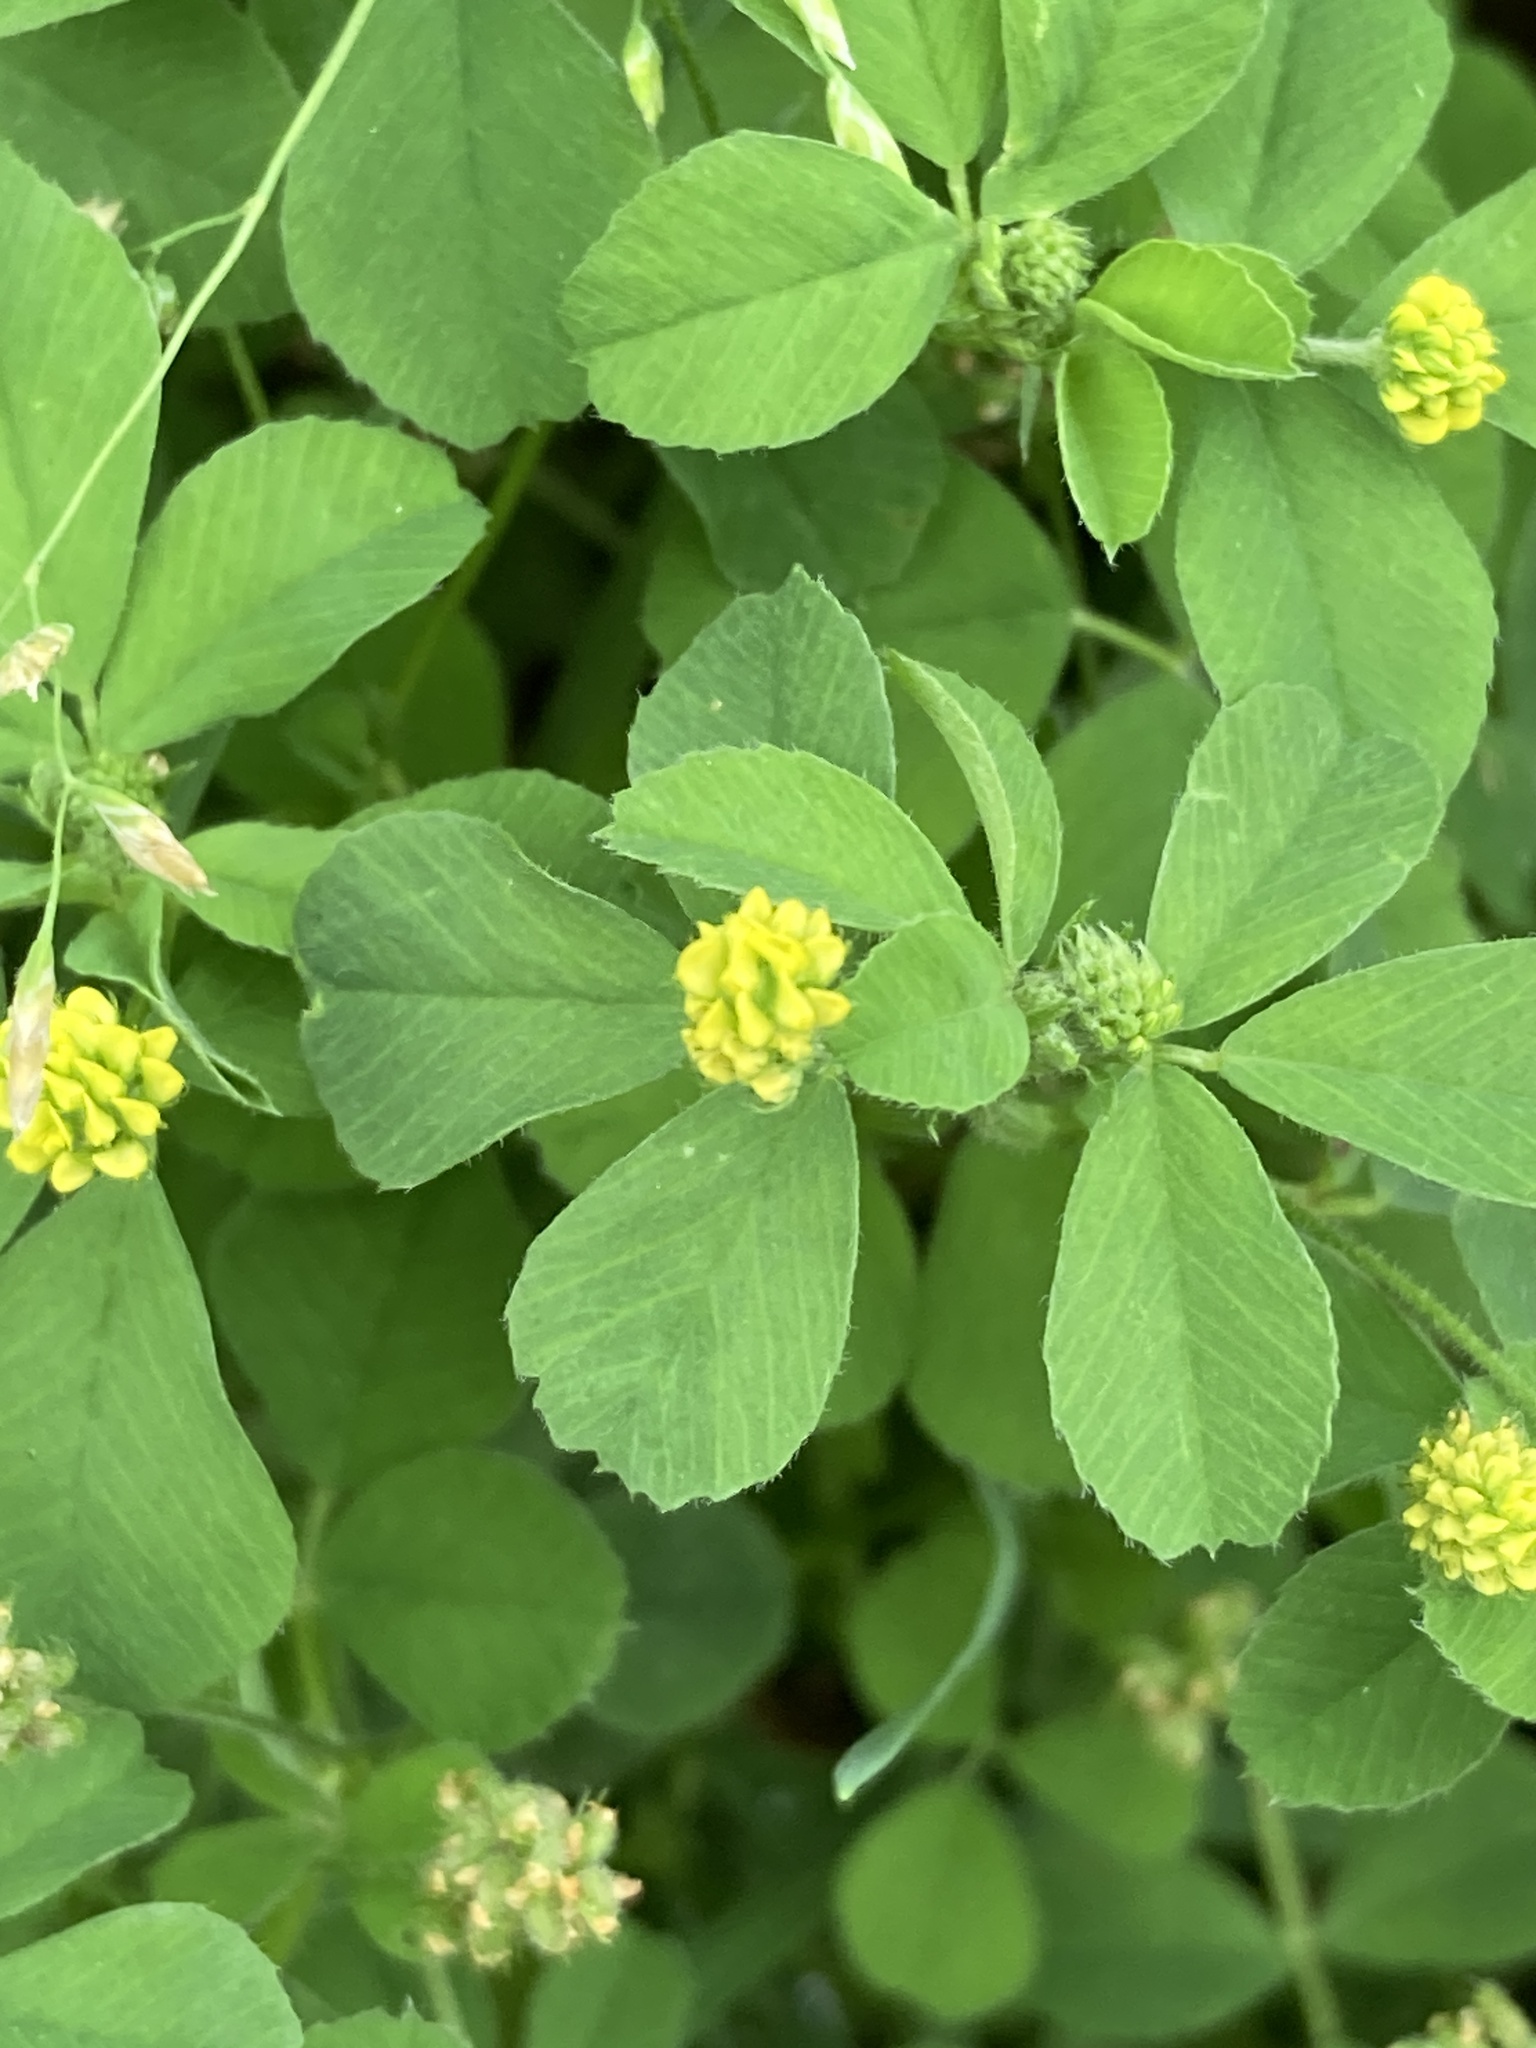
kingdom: Plantae
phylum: Tracheophyta
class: Magnoliopsida
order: Fabales
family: Fabaceae
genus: Medicago
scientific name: Medicago lupulina
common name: Black medick
